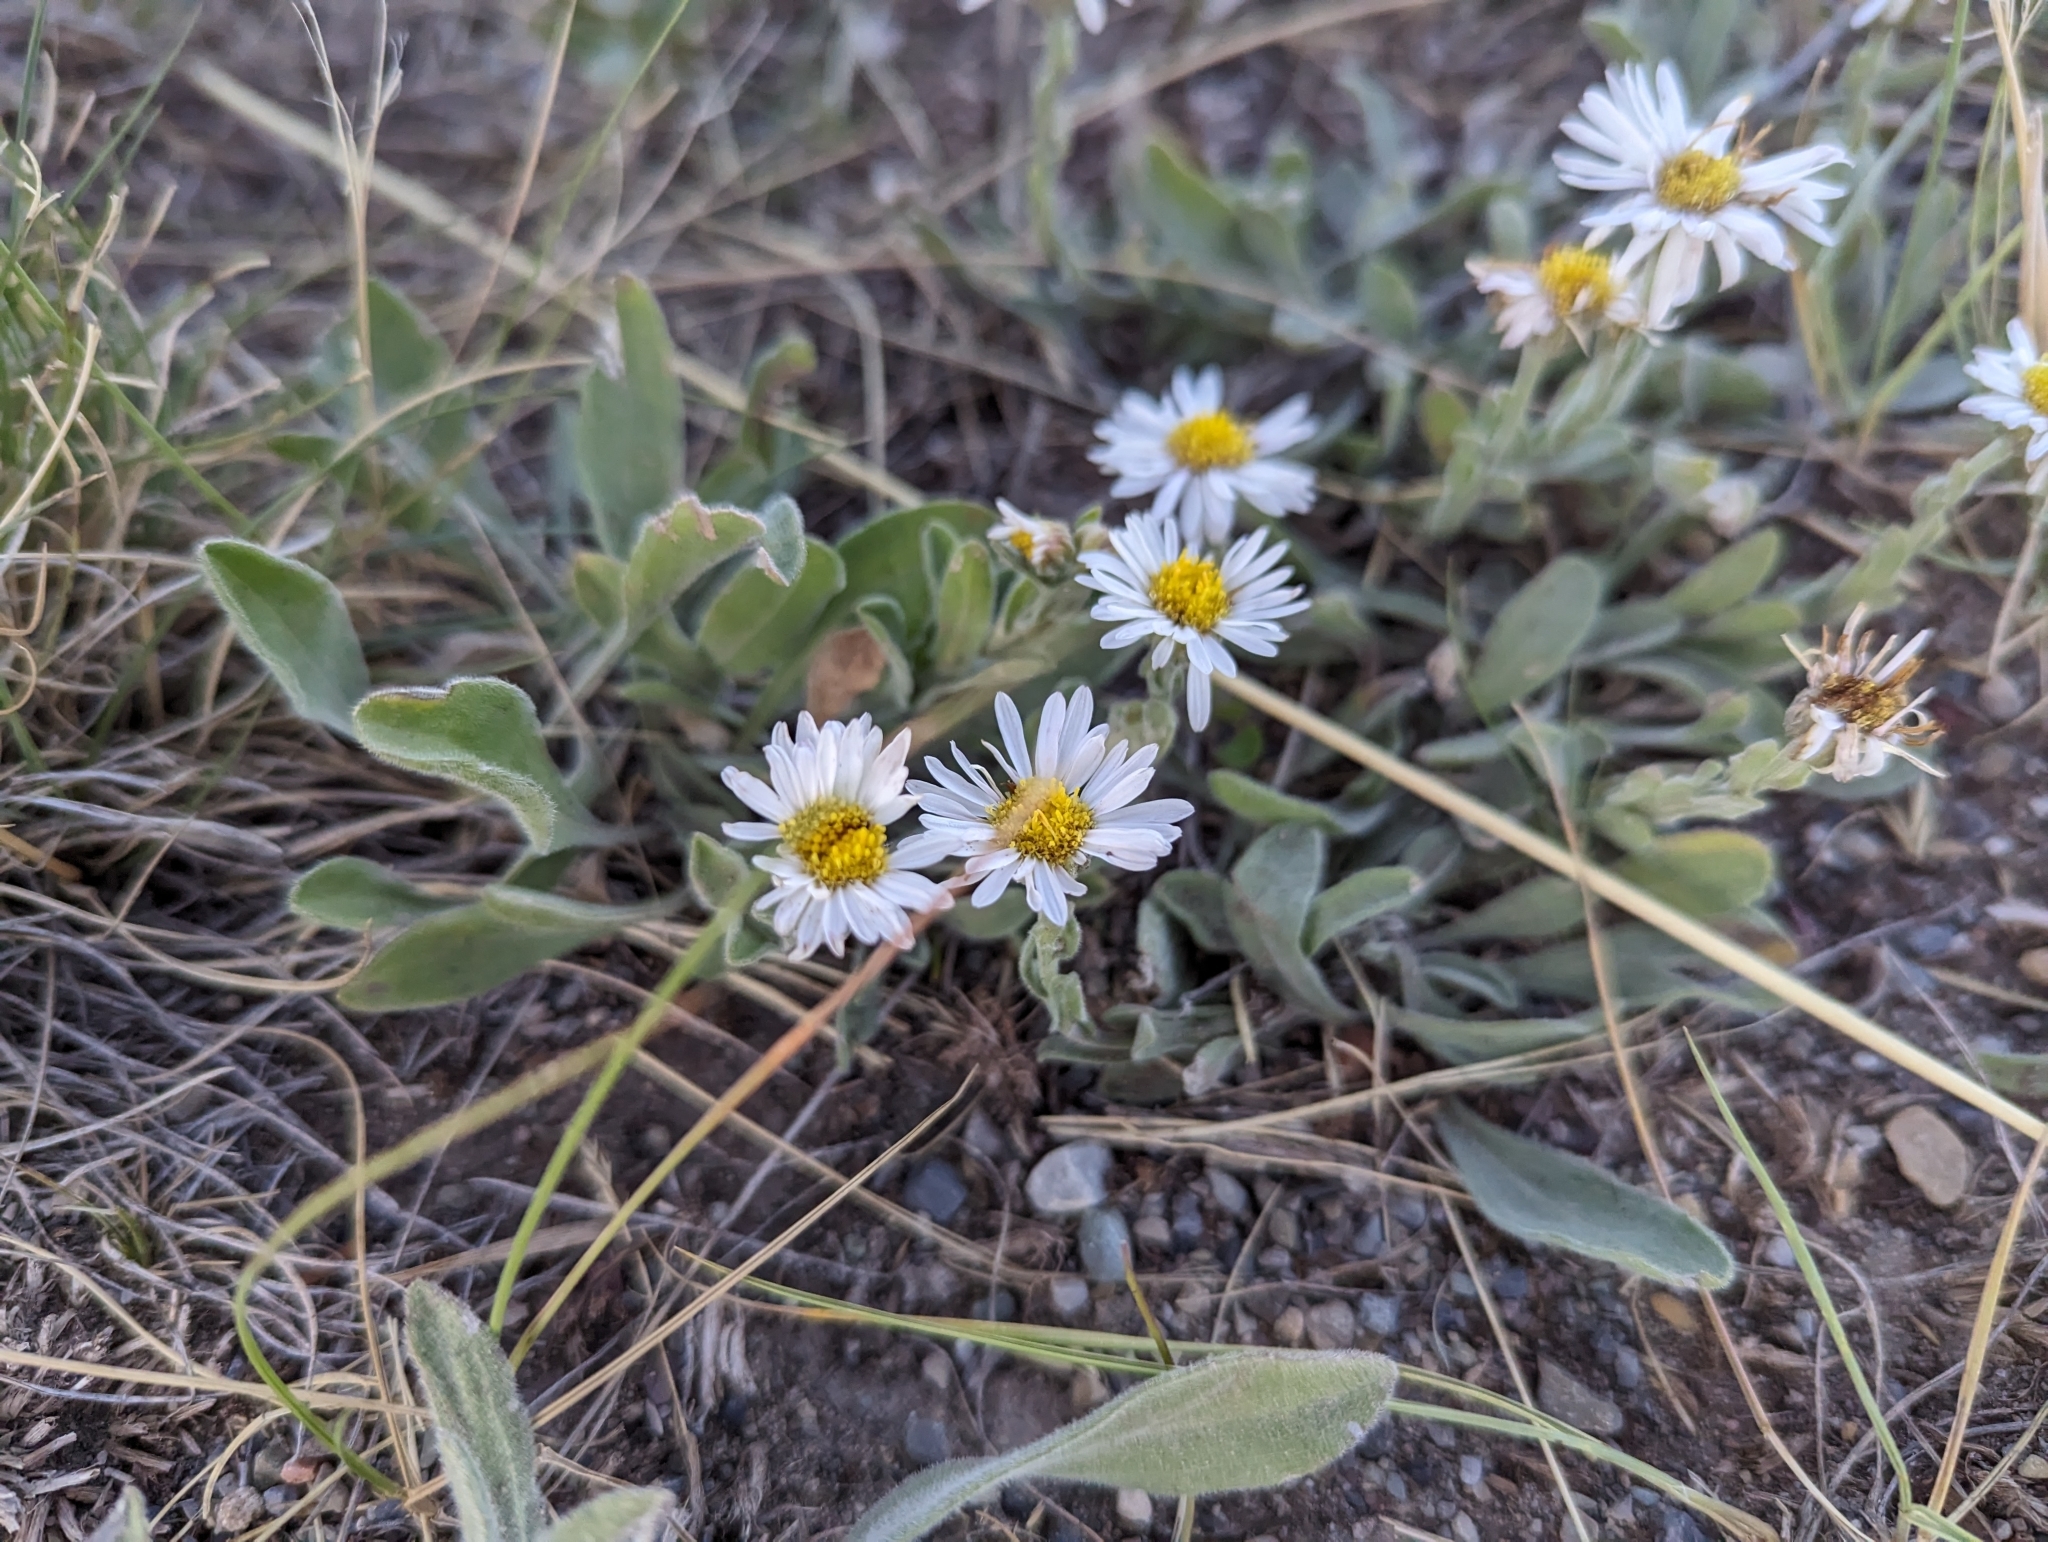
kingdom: Plantae
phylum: Tracheophyta
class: Magnoliopsida
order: Asterales
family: Asteraceae
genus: Erigeron
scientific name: Erigeron caespitosus
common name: Tufted fleabane
